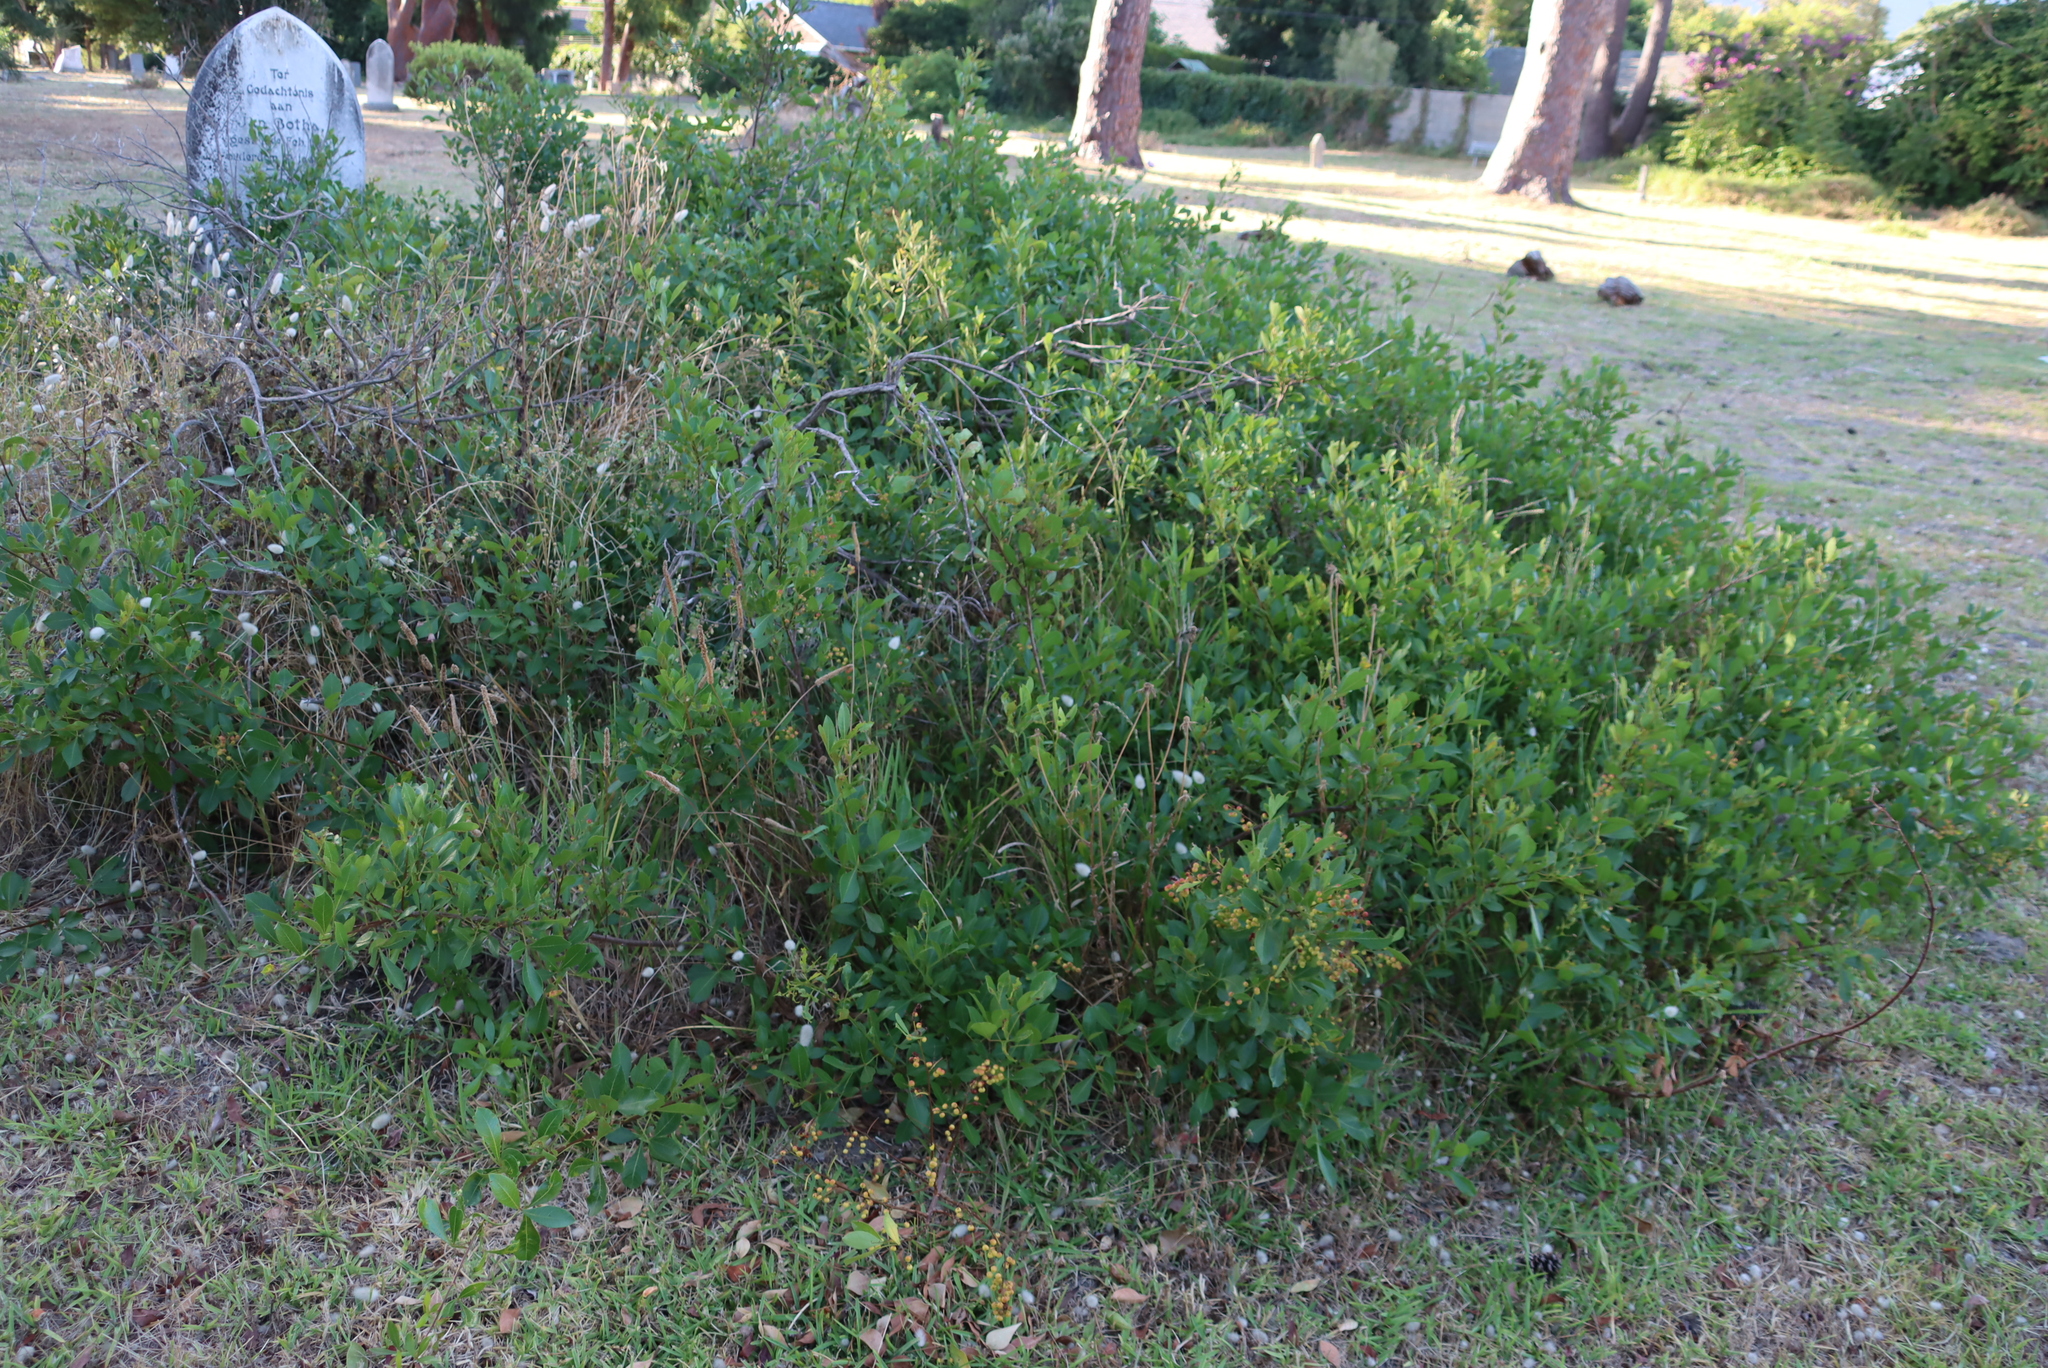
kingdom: Plantae
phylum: Tracheophyta
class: Magnoliopsida
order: Sapindales
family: Anacardiaceae
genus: Searsia
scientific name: Searsia laevigata
